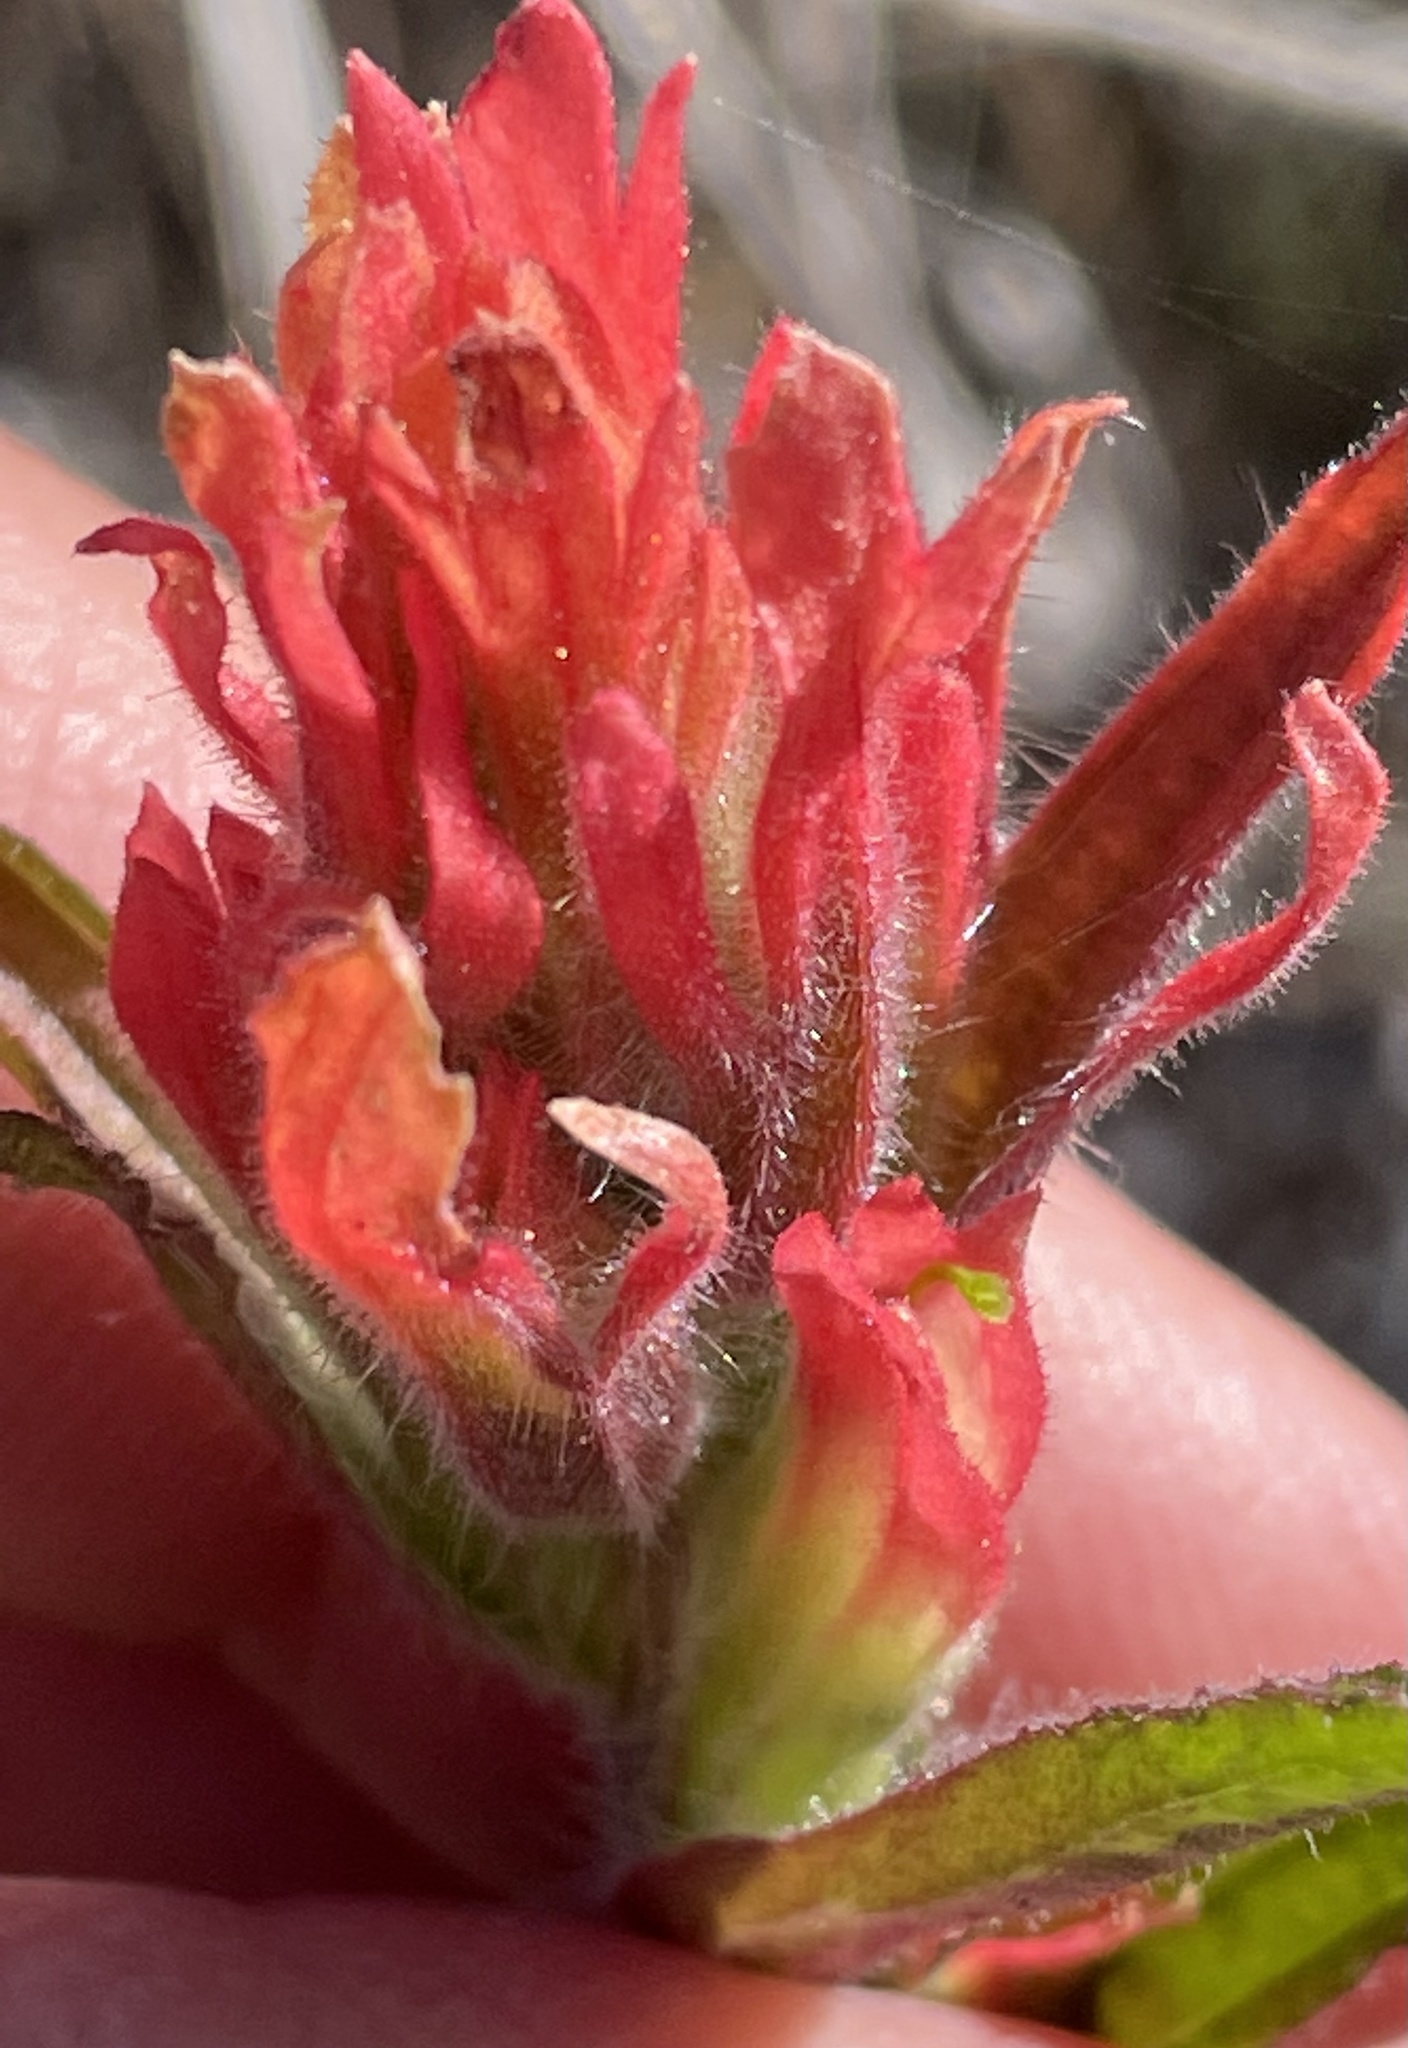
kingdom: Plantae
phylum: Tracheophyta
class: Magnoliopsida
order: Lamiales
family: Orobanchaceae
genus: Castilleja
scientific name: Castilleja affinis
